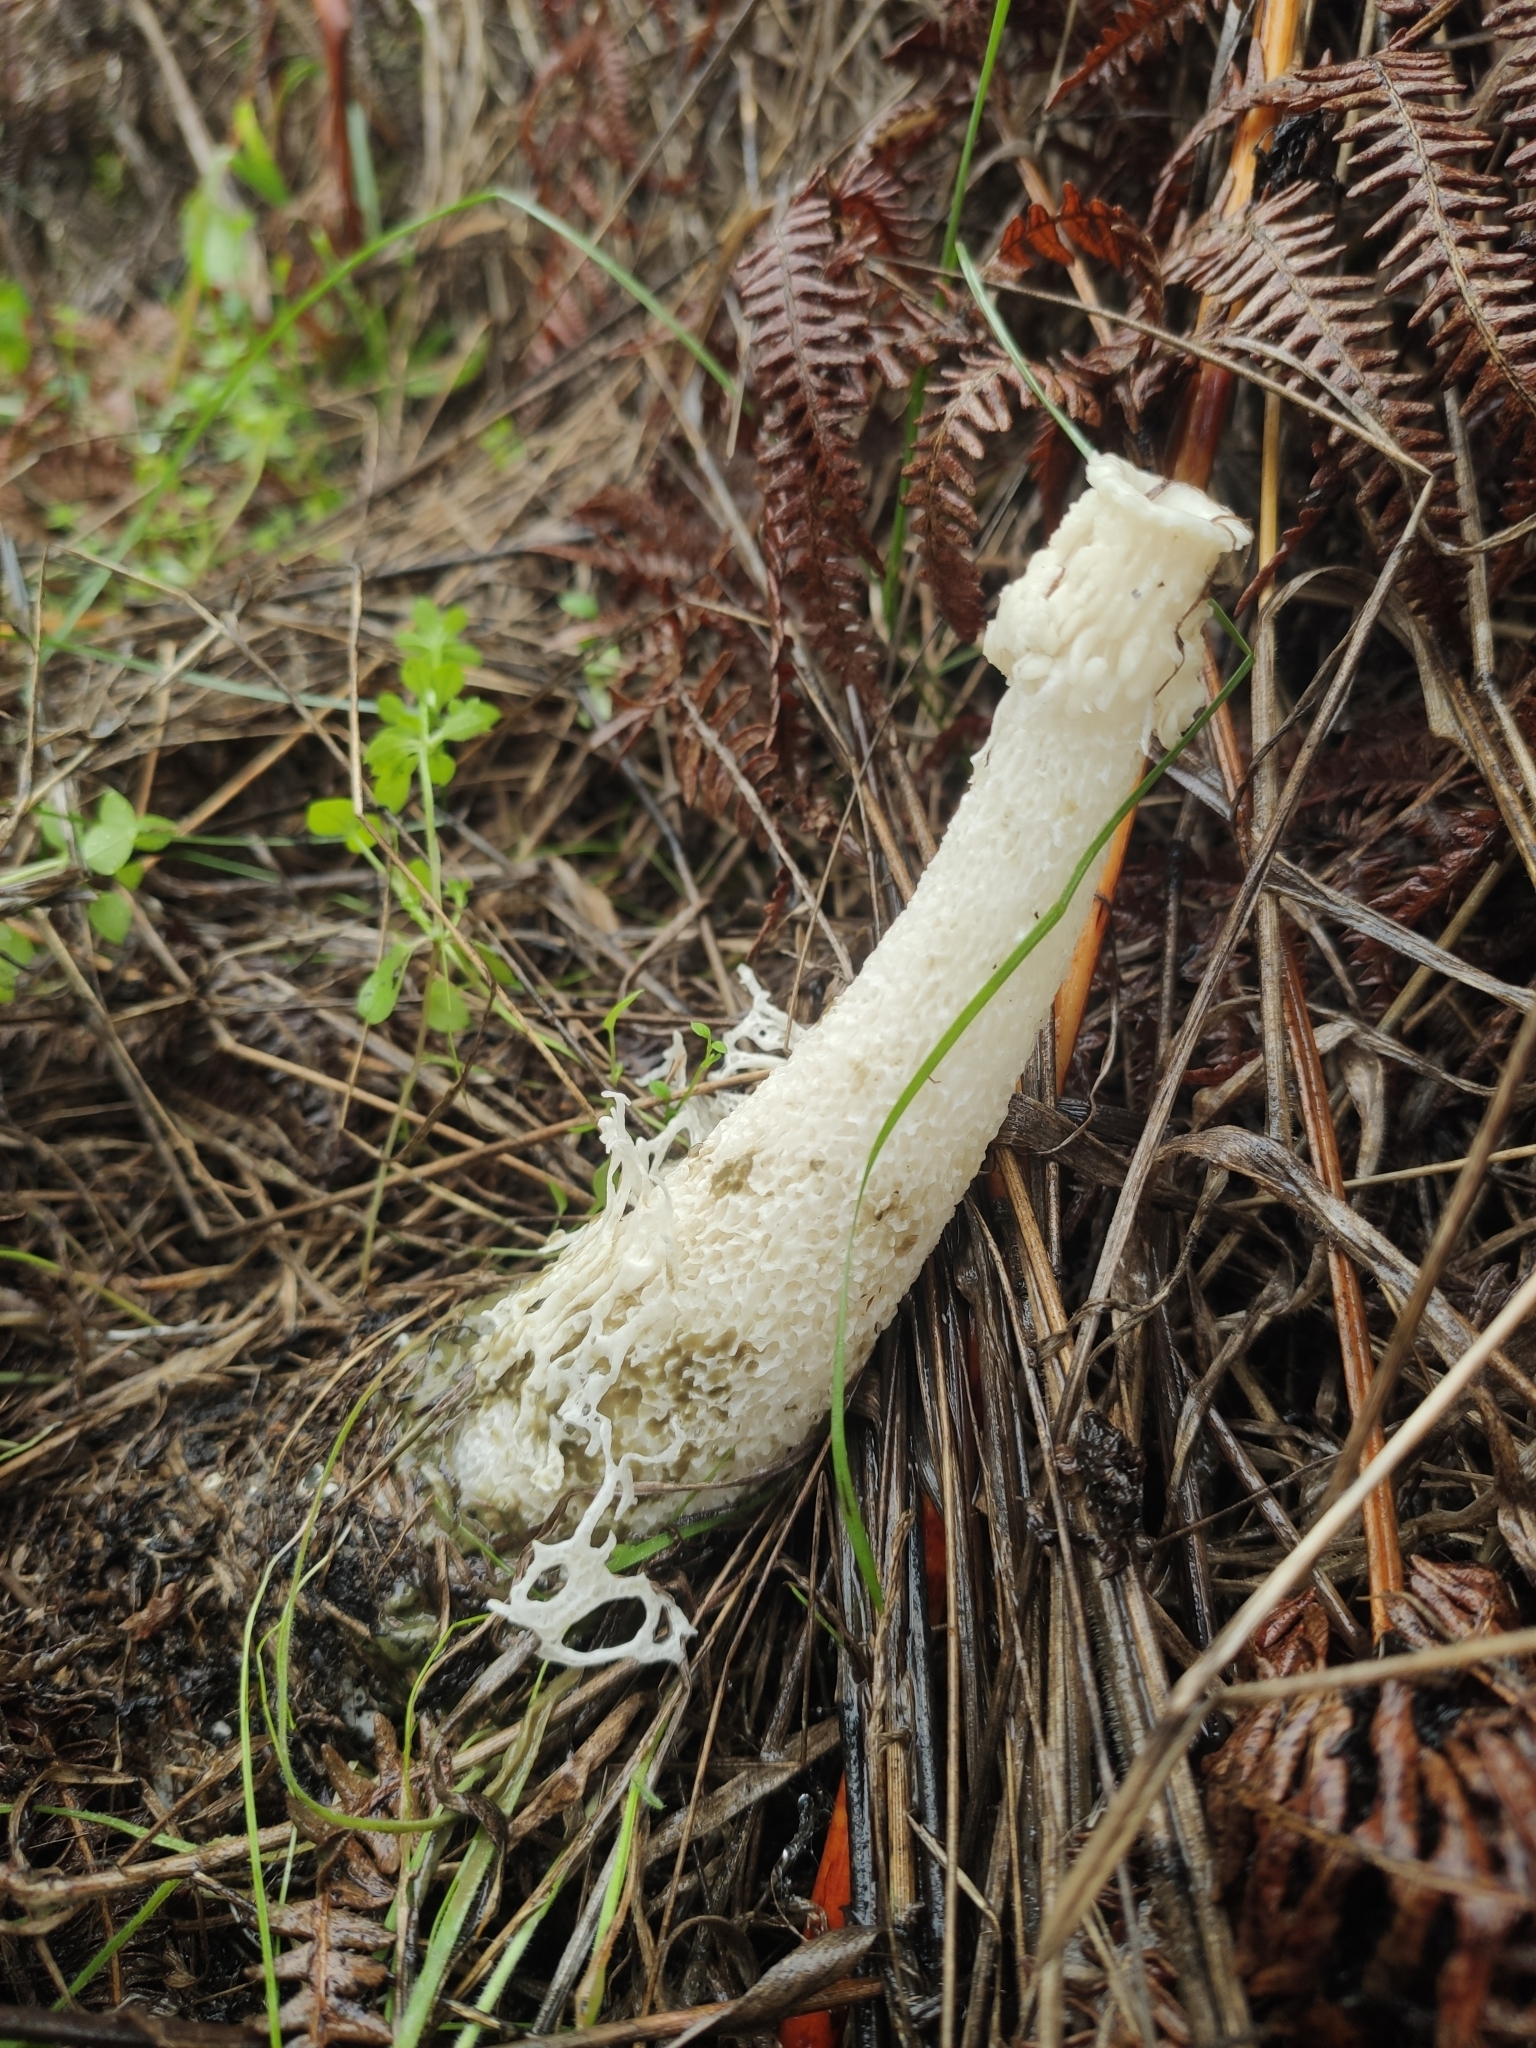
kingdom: Fungi
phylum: Basidiomycota
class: Agaricomycetes
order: Phallales
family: Phallaceae
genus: Phallus
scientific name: Phallus impudicus
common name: Common stinkhorn
